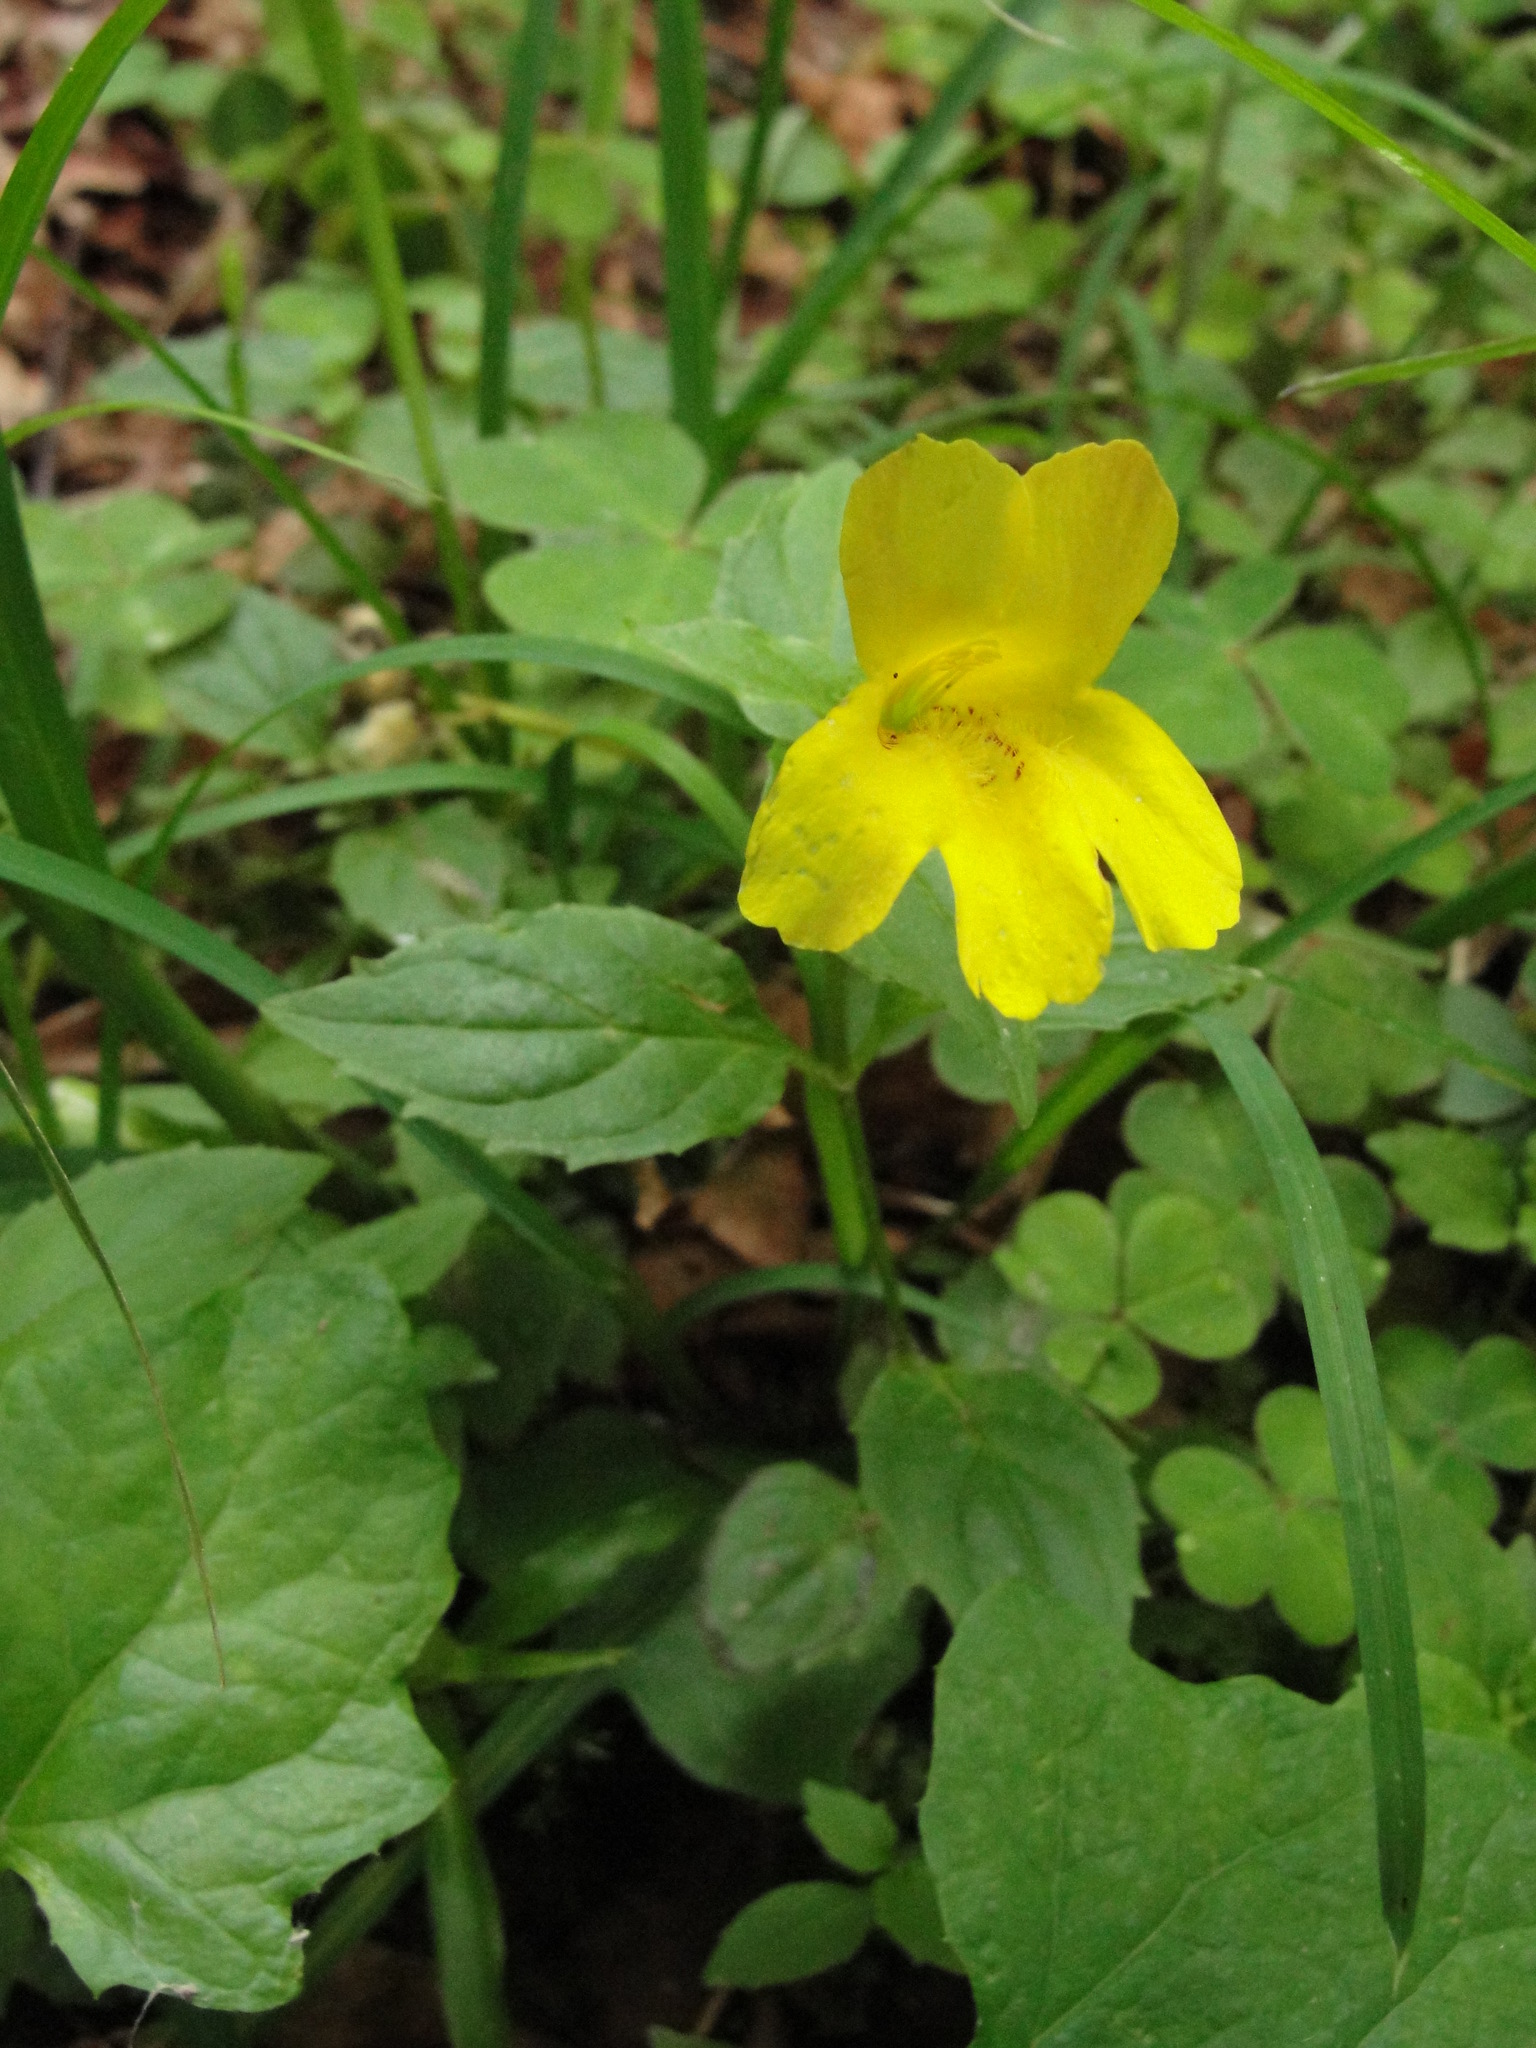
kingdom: Plantae
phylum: Tracheophyta
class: Magnoliopsida
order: Lamiales
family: Phrymaceae
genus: Erythranthe
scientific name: Erythranthe dentata
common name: Coastal monkeyflower
